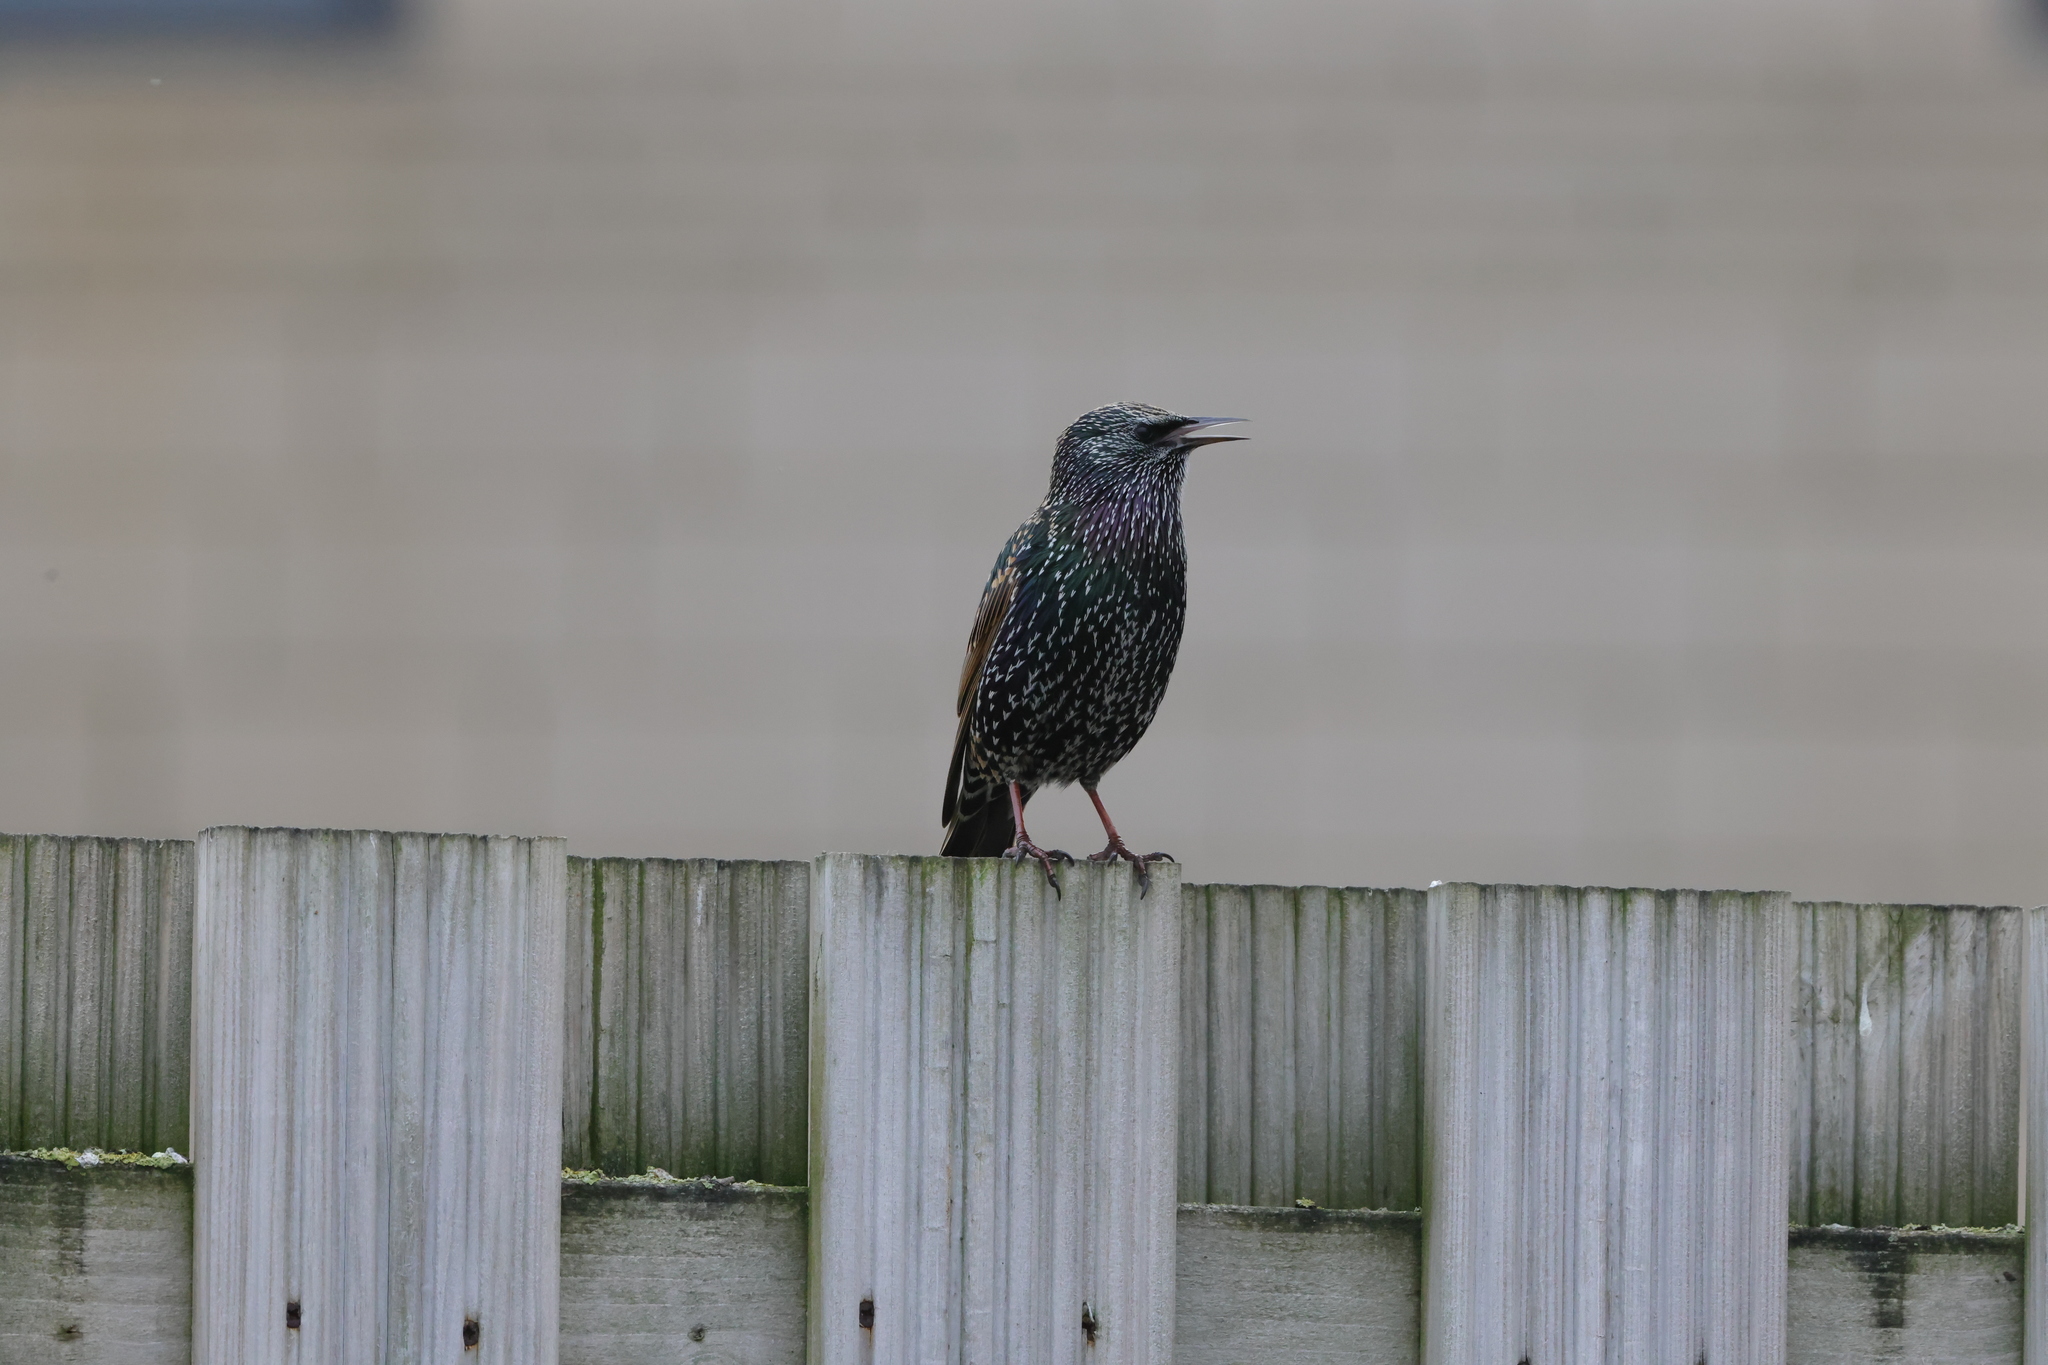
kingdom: Animalia
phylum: Chordata
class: Aves
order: Passeriformes
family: Sturnidae
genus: Sturnus
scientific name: Sturnus vulgaris
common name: Common starling
